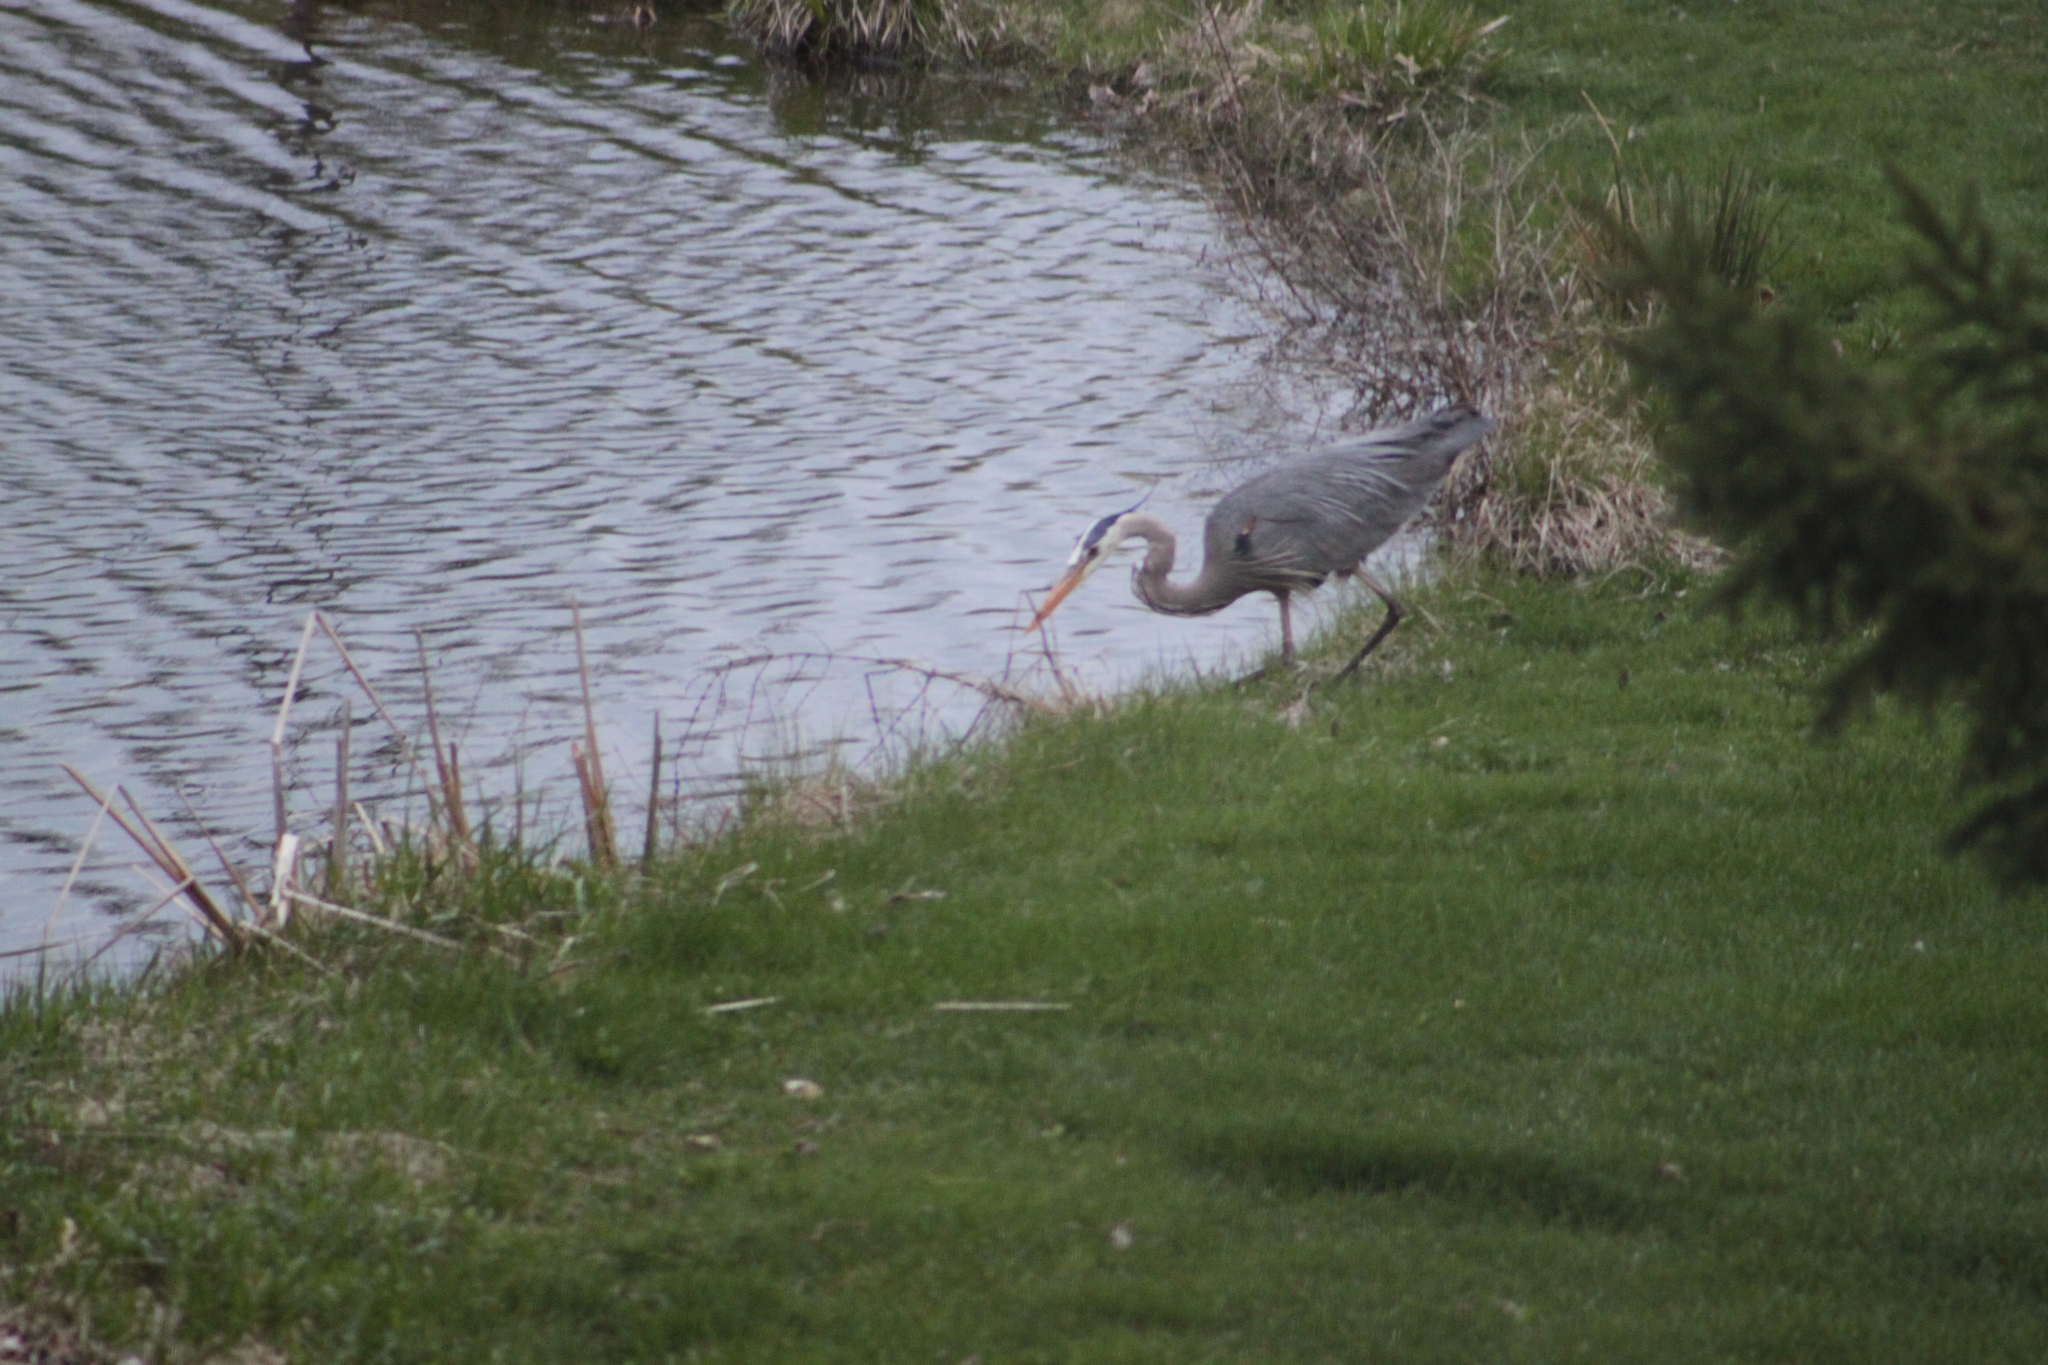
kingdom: Animalia
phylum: Chordata
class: Aves
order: Pelecaniformes
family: Ardeidae
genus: Ardea
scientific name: Ardea herodias
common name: Great blue heron
